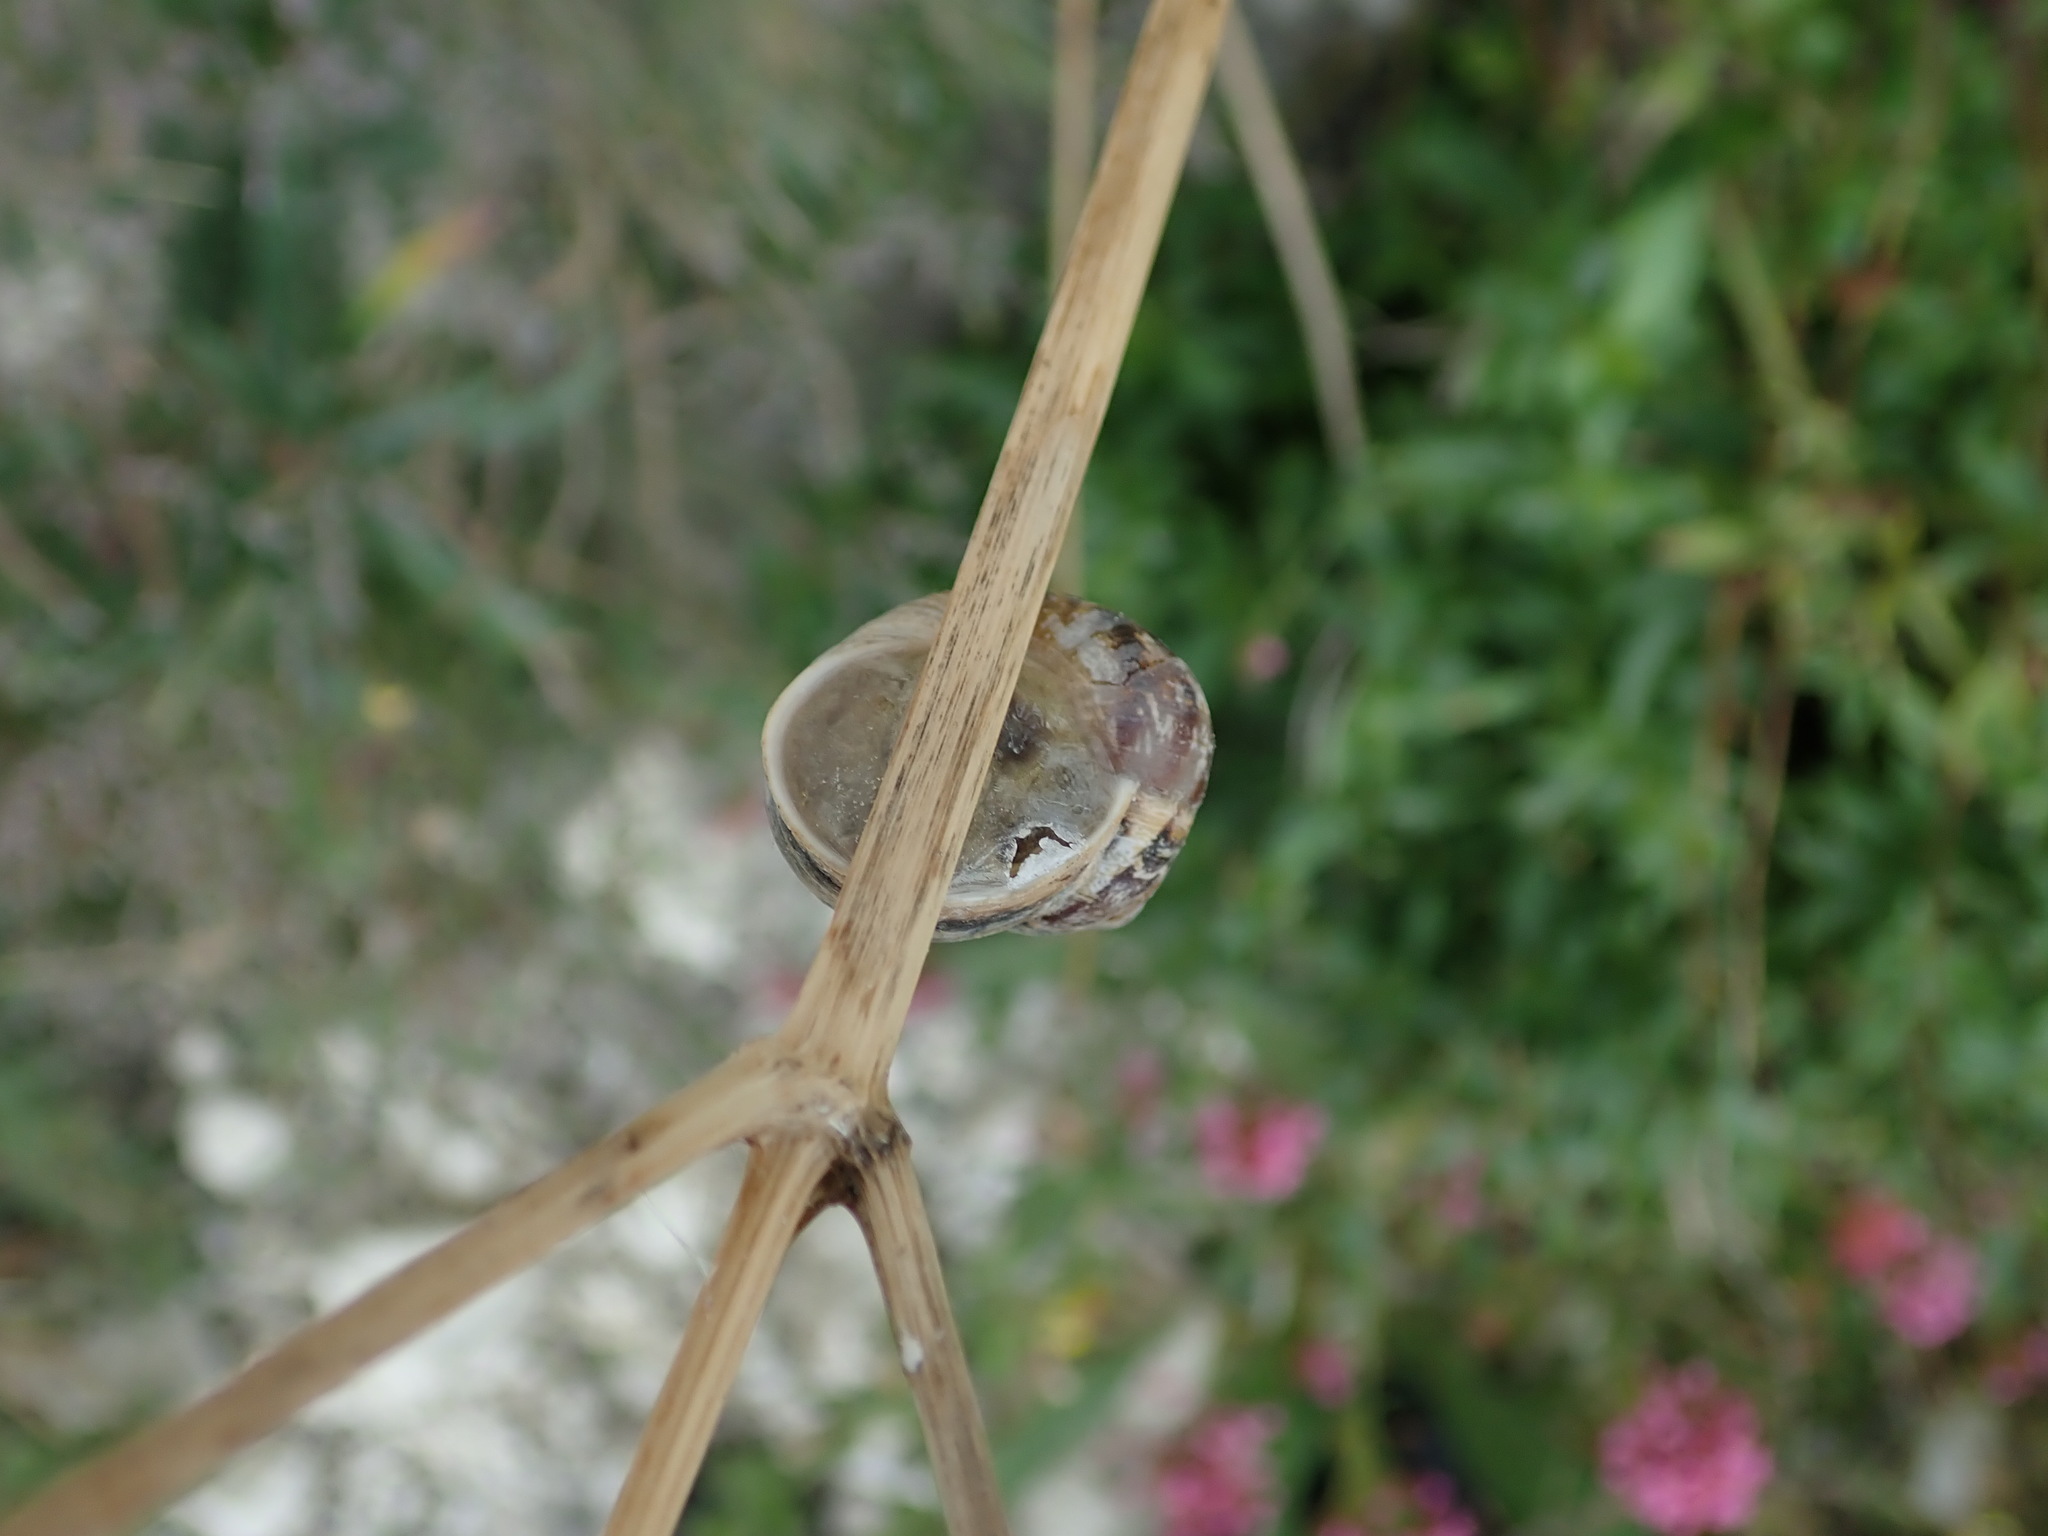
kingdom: Animalia
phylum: Mollusca
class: Gastropoda
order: Stylommatophora
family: Helicidae
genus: Cornu
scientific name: Cornu aspersum
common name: Brown garden snail
